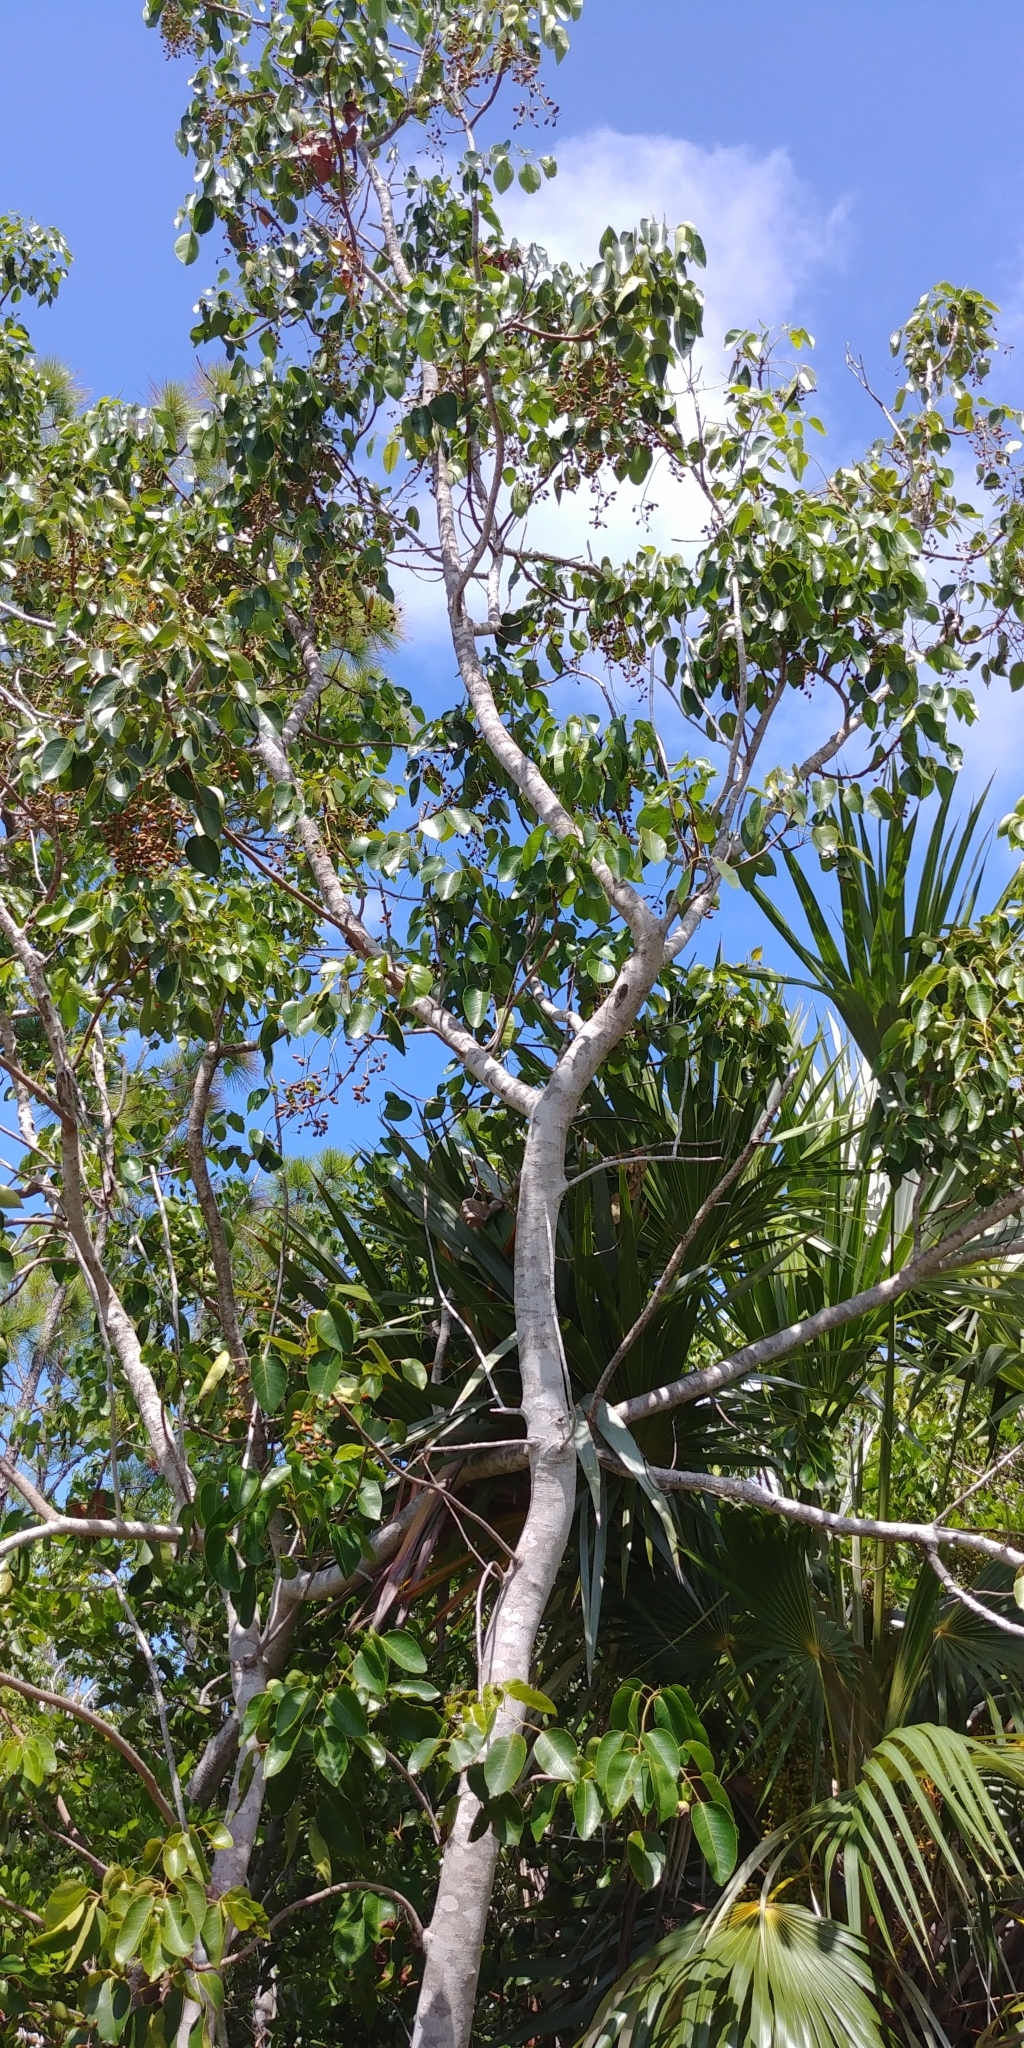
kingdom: Plantae
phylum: Tracheophyta
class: Magnoliopsida
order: Sapindales
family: Anacardiaceae
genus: Metopium
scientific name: Metopium toxiferum
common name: Florida poisontree
